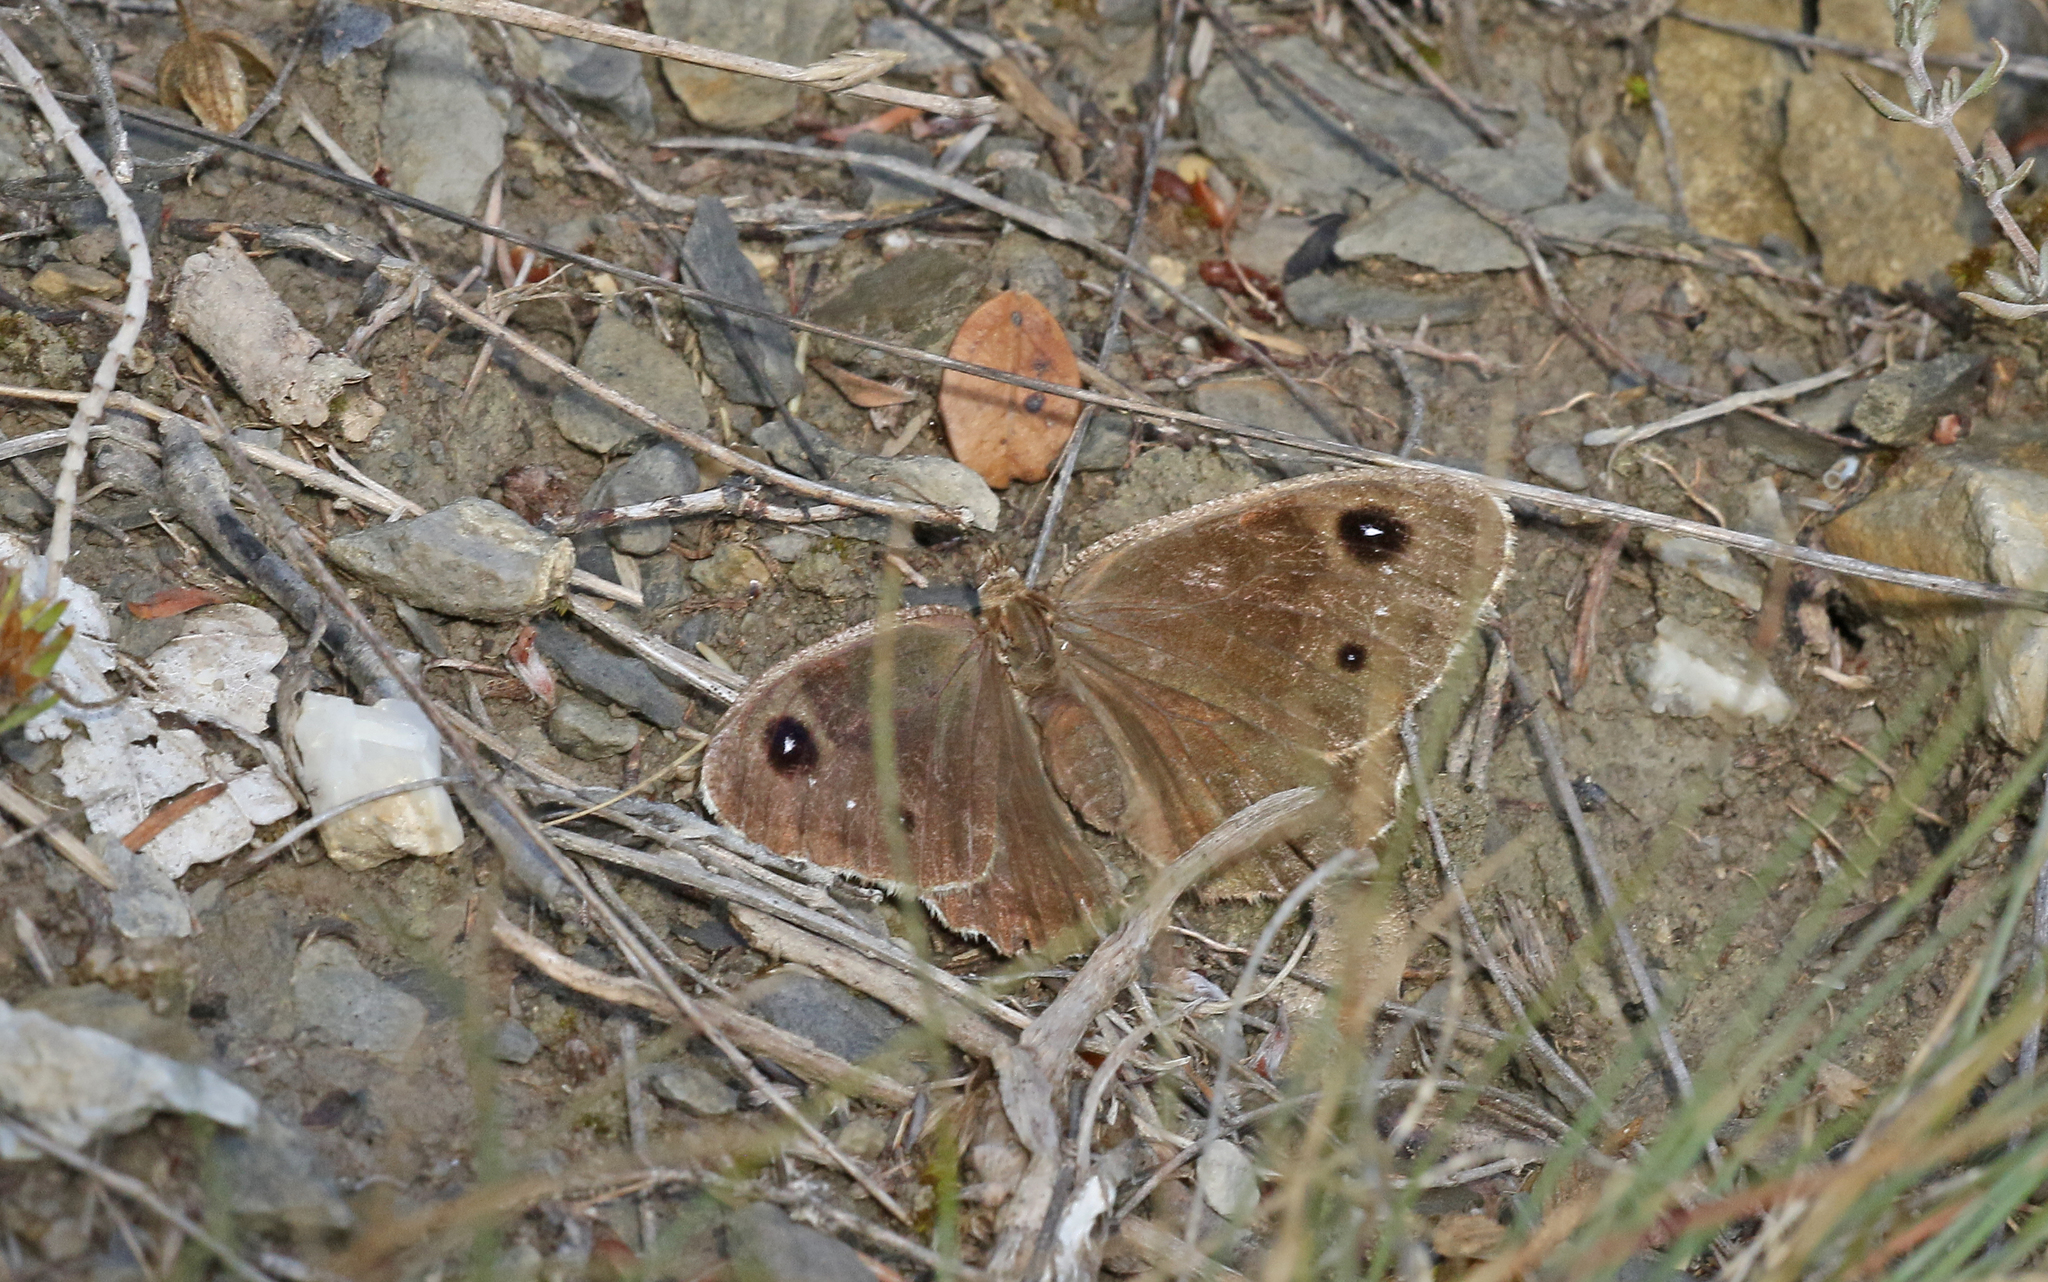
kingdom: Animalia
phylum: Arthropoda
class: Insecta
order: Lepidoptera
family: Nymphalidae
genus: Satyrus
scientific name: Satyrus ferula
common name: Great sooty satyr
